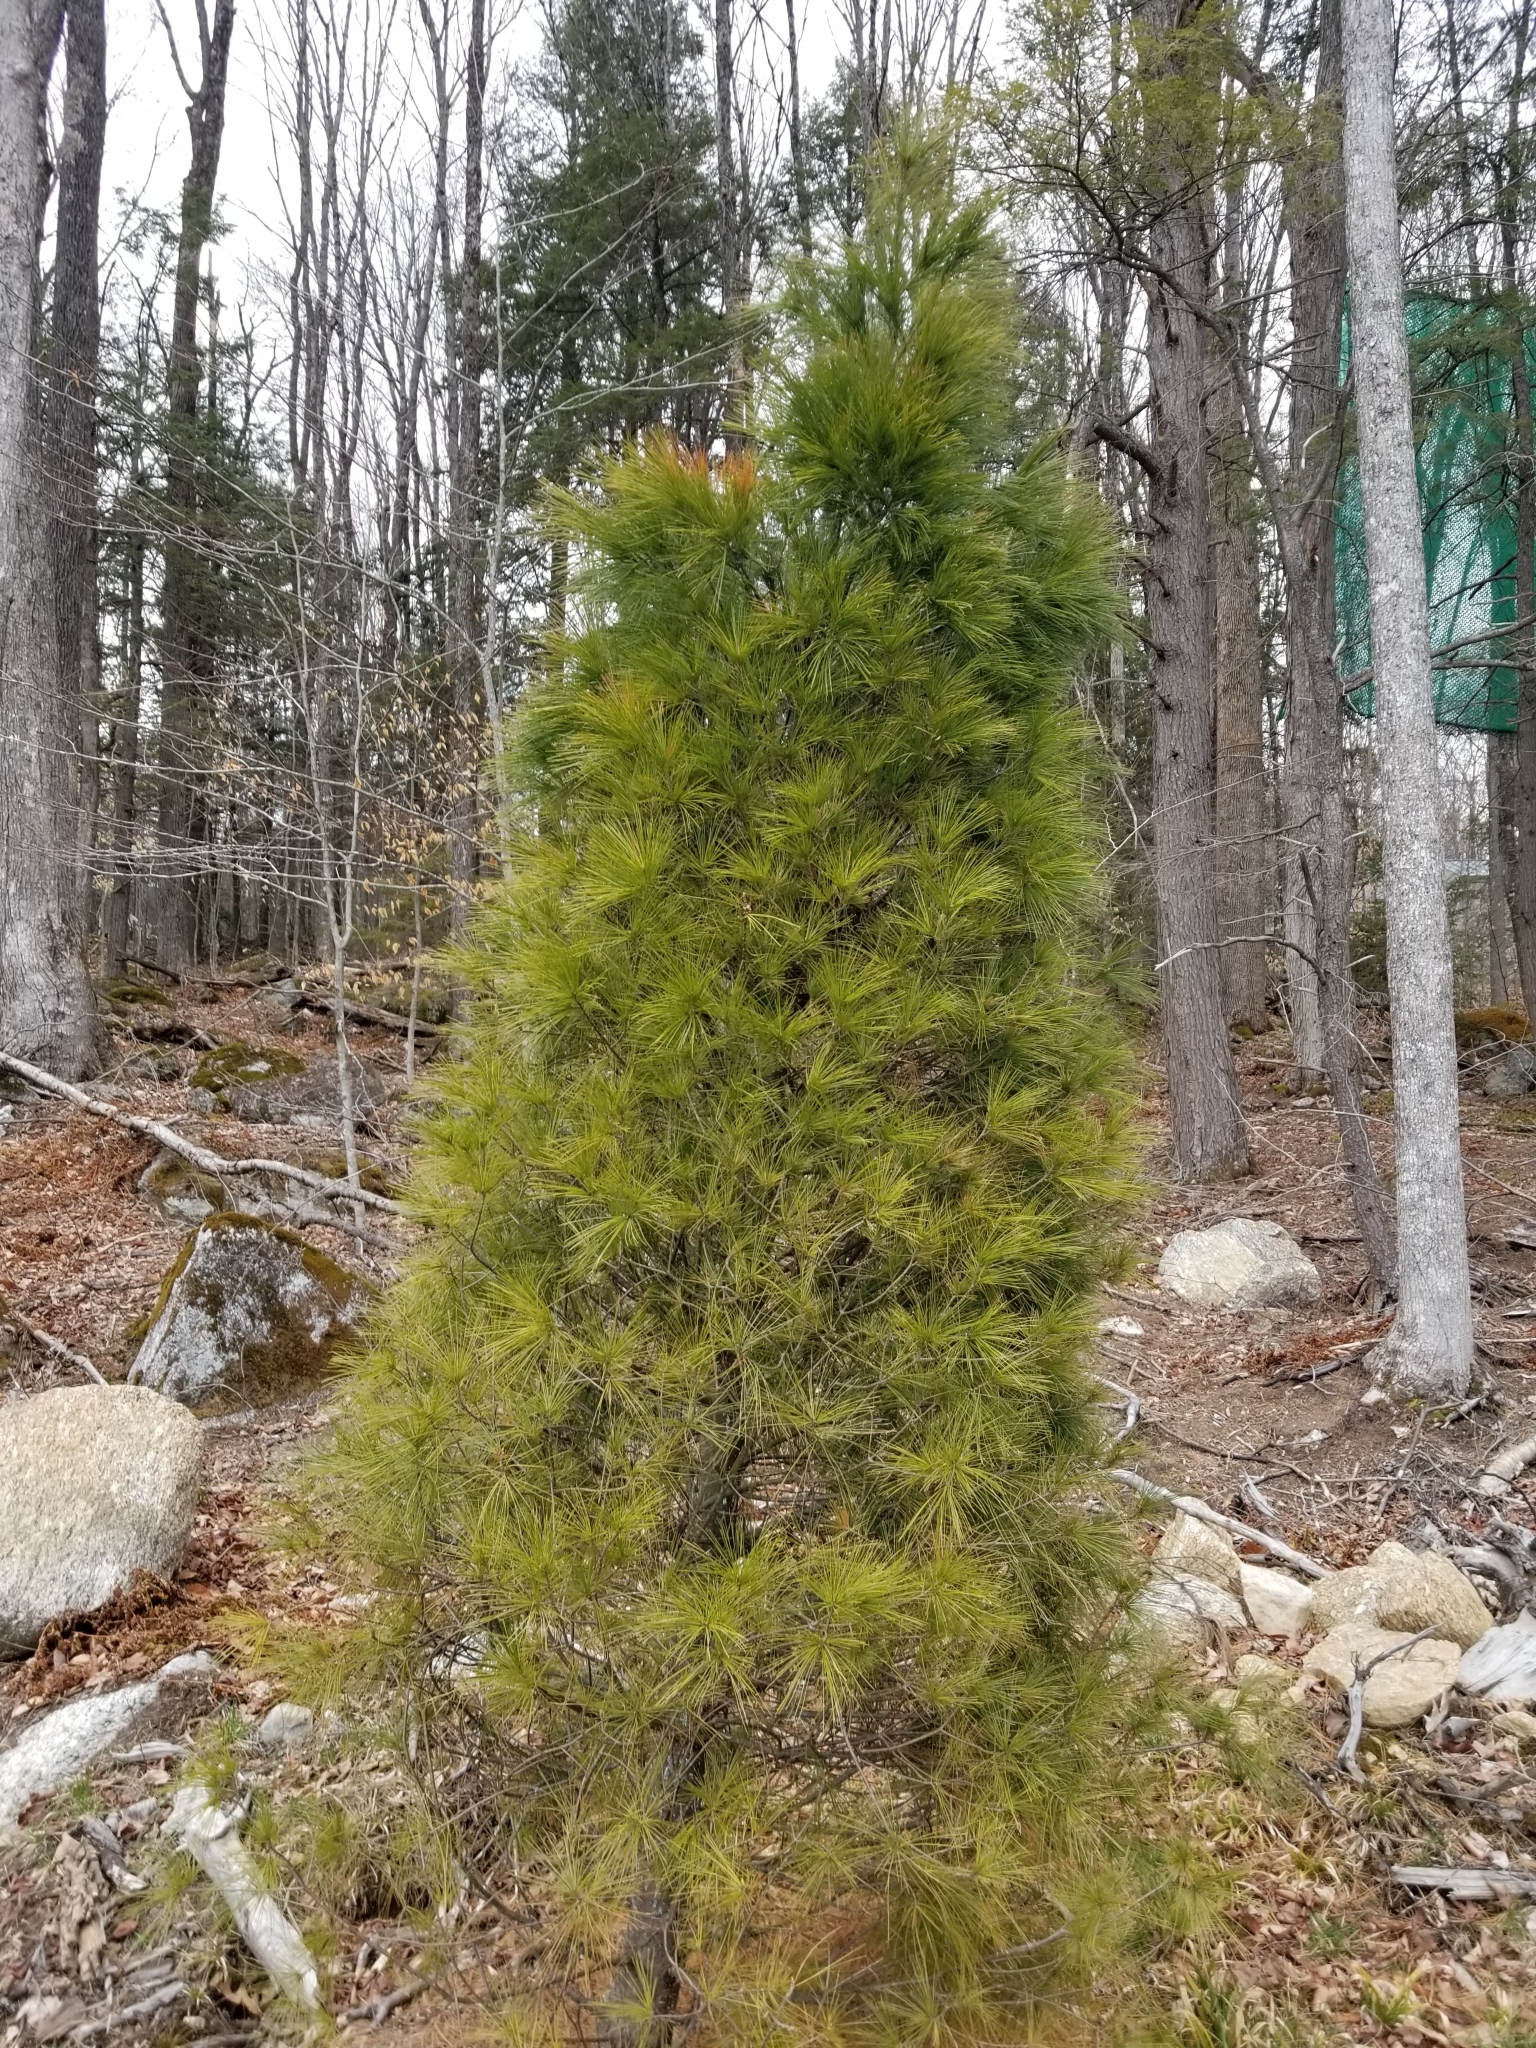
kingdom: Plantae
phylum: Tracheophyta
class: Pinopsida
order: Pinales
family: Pinaceae
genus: Pinus
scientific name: Pinus strobus
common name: Weymouth pine
